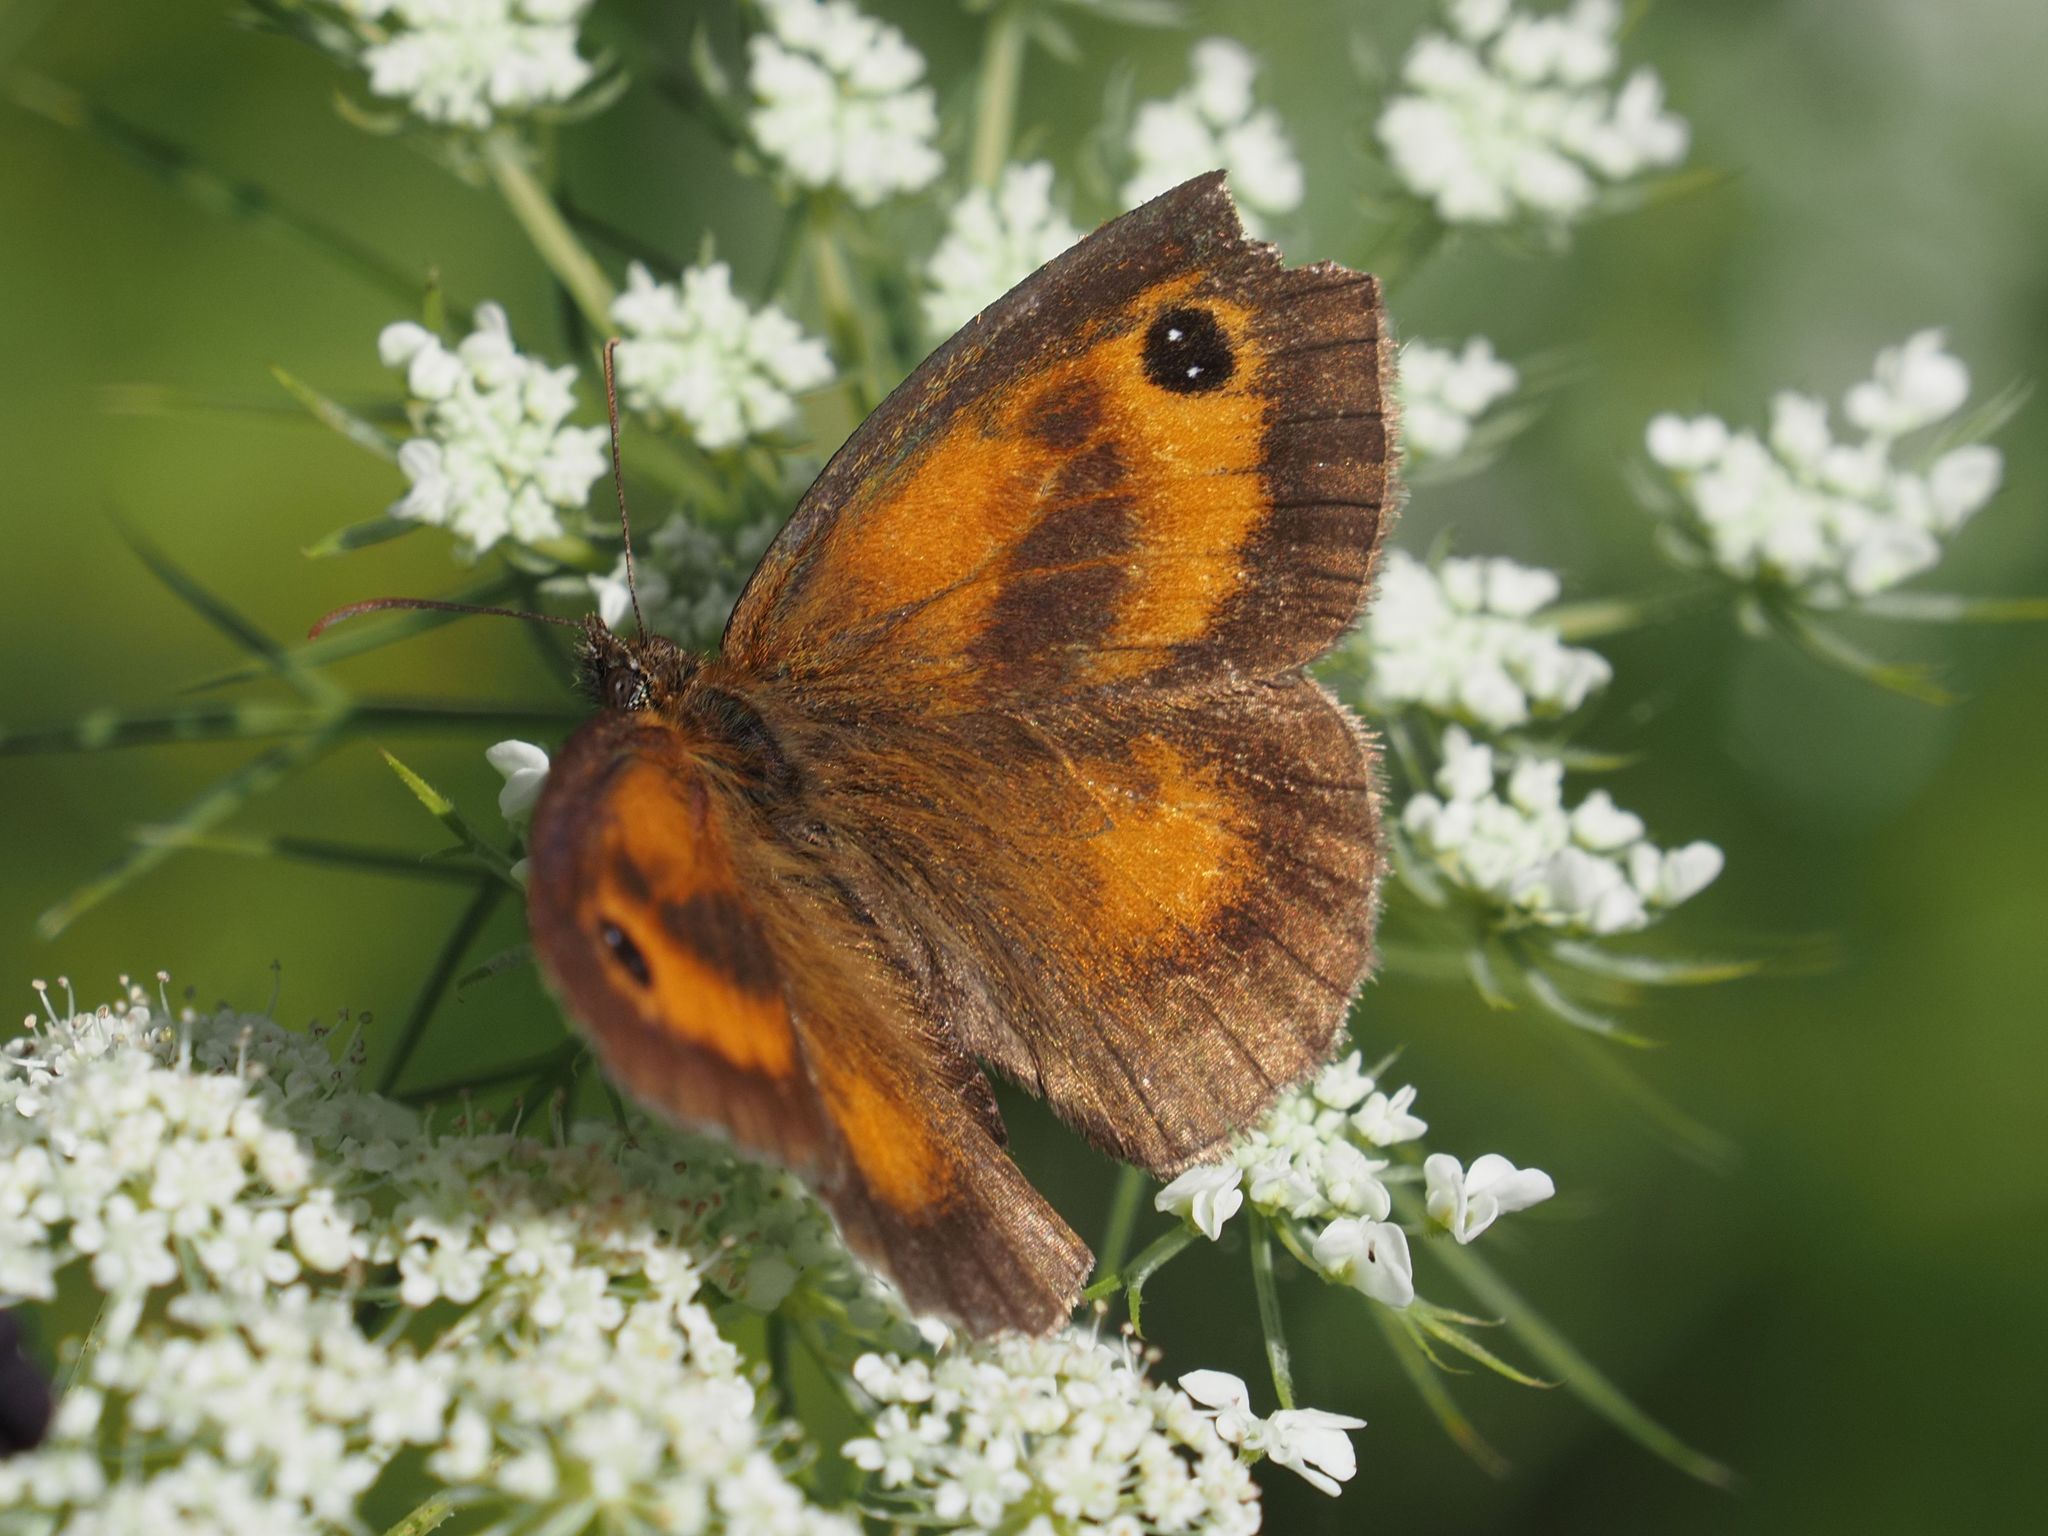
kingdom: Animalia
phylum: Arthropoda
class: Insecta
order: Lepidoptera
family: Nymphalidae
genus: Pyronia
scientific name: Pyronia tithonus
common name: Gatekeeper
